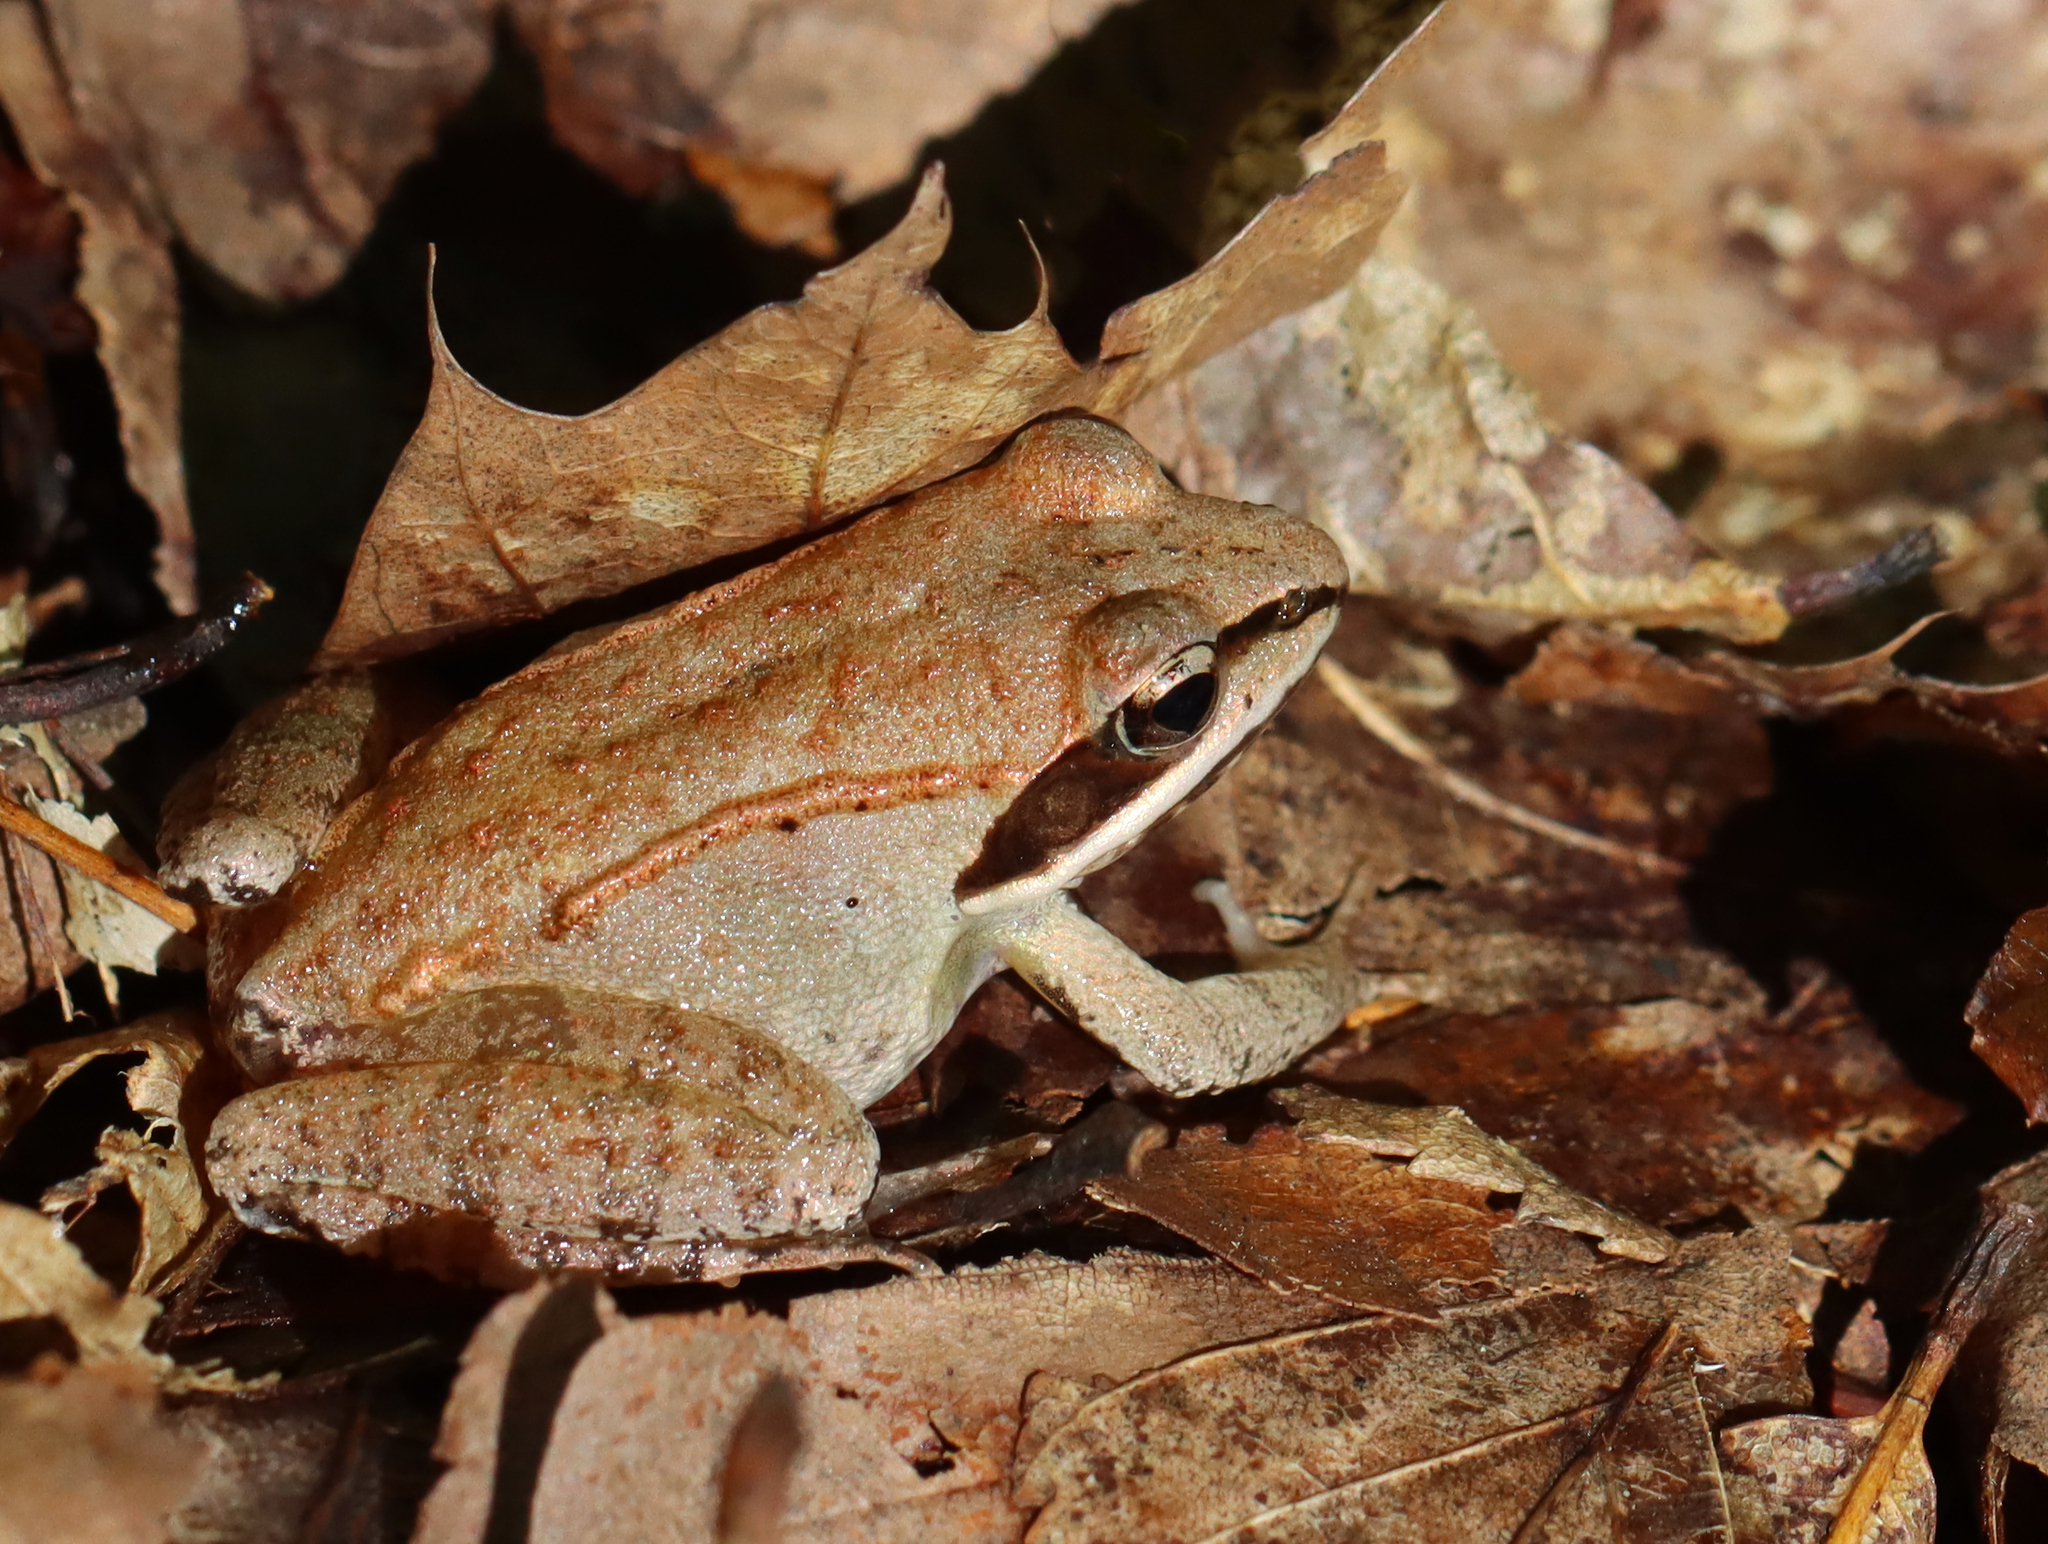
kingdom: Animalia
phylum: Chordata
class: Amphibia
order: Anura
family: Ranidae
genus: Lithobates
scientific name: Lithobates sylvaticus
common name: Wood frog
